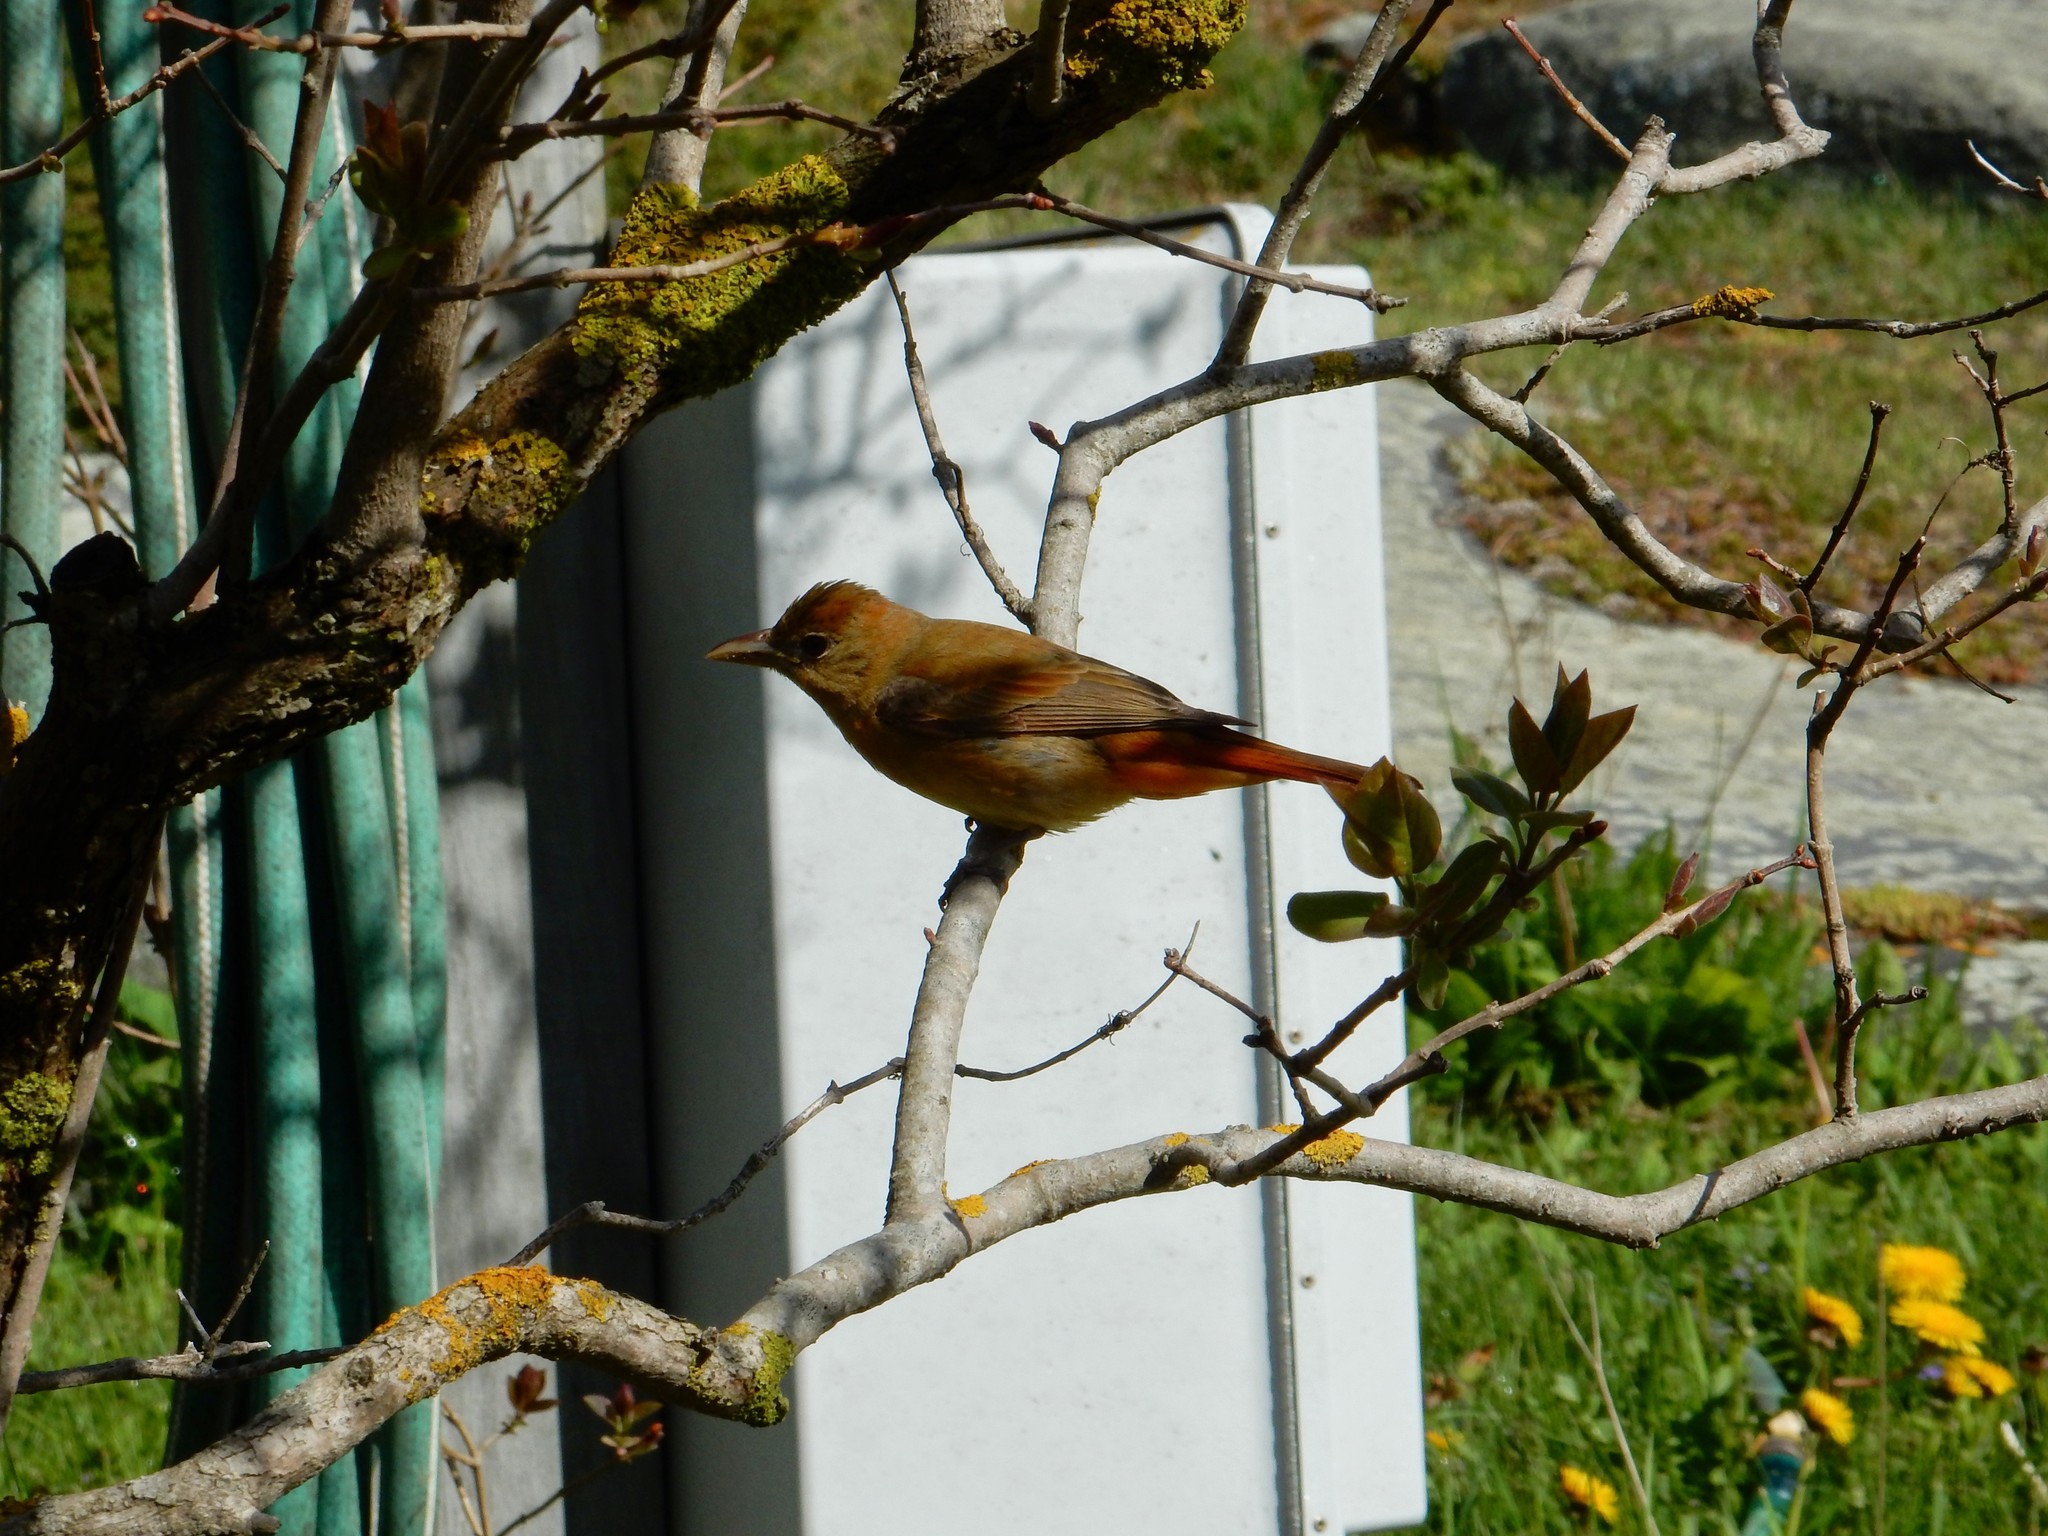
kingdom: Animalia
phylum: Chordata
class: Aves
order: Passeriformes
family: Cardinalidae
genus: Piranga
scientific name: Piranga rubra
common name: Summer tanager
